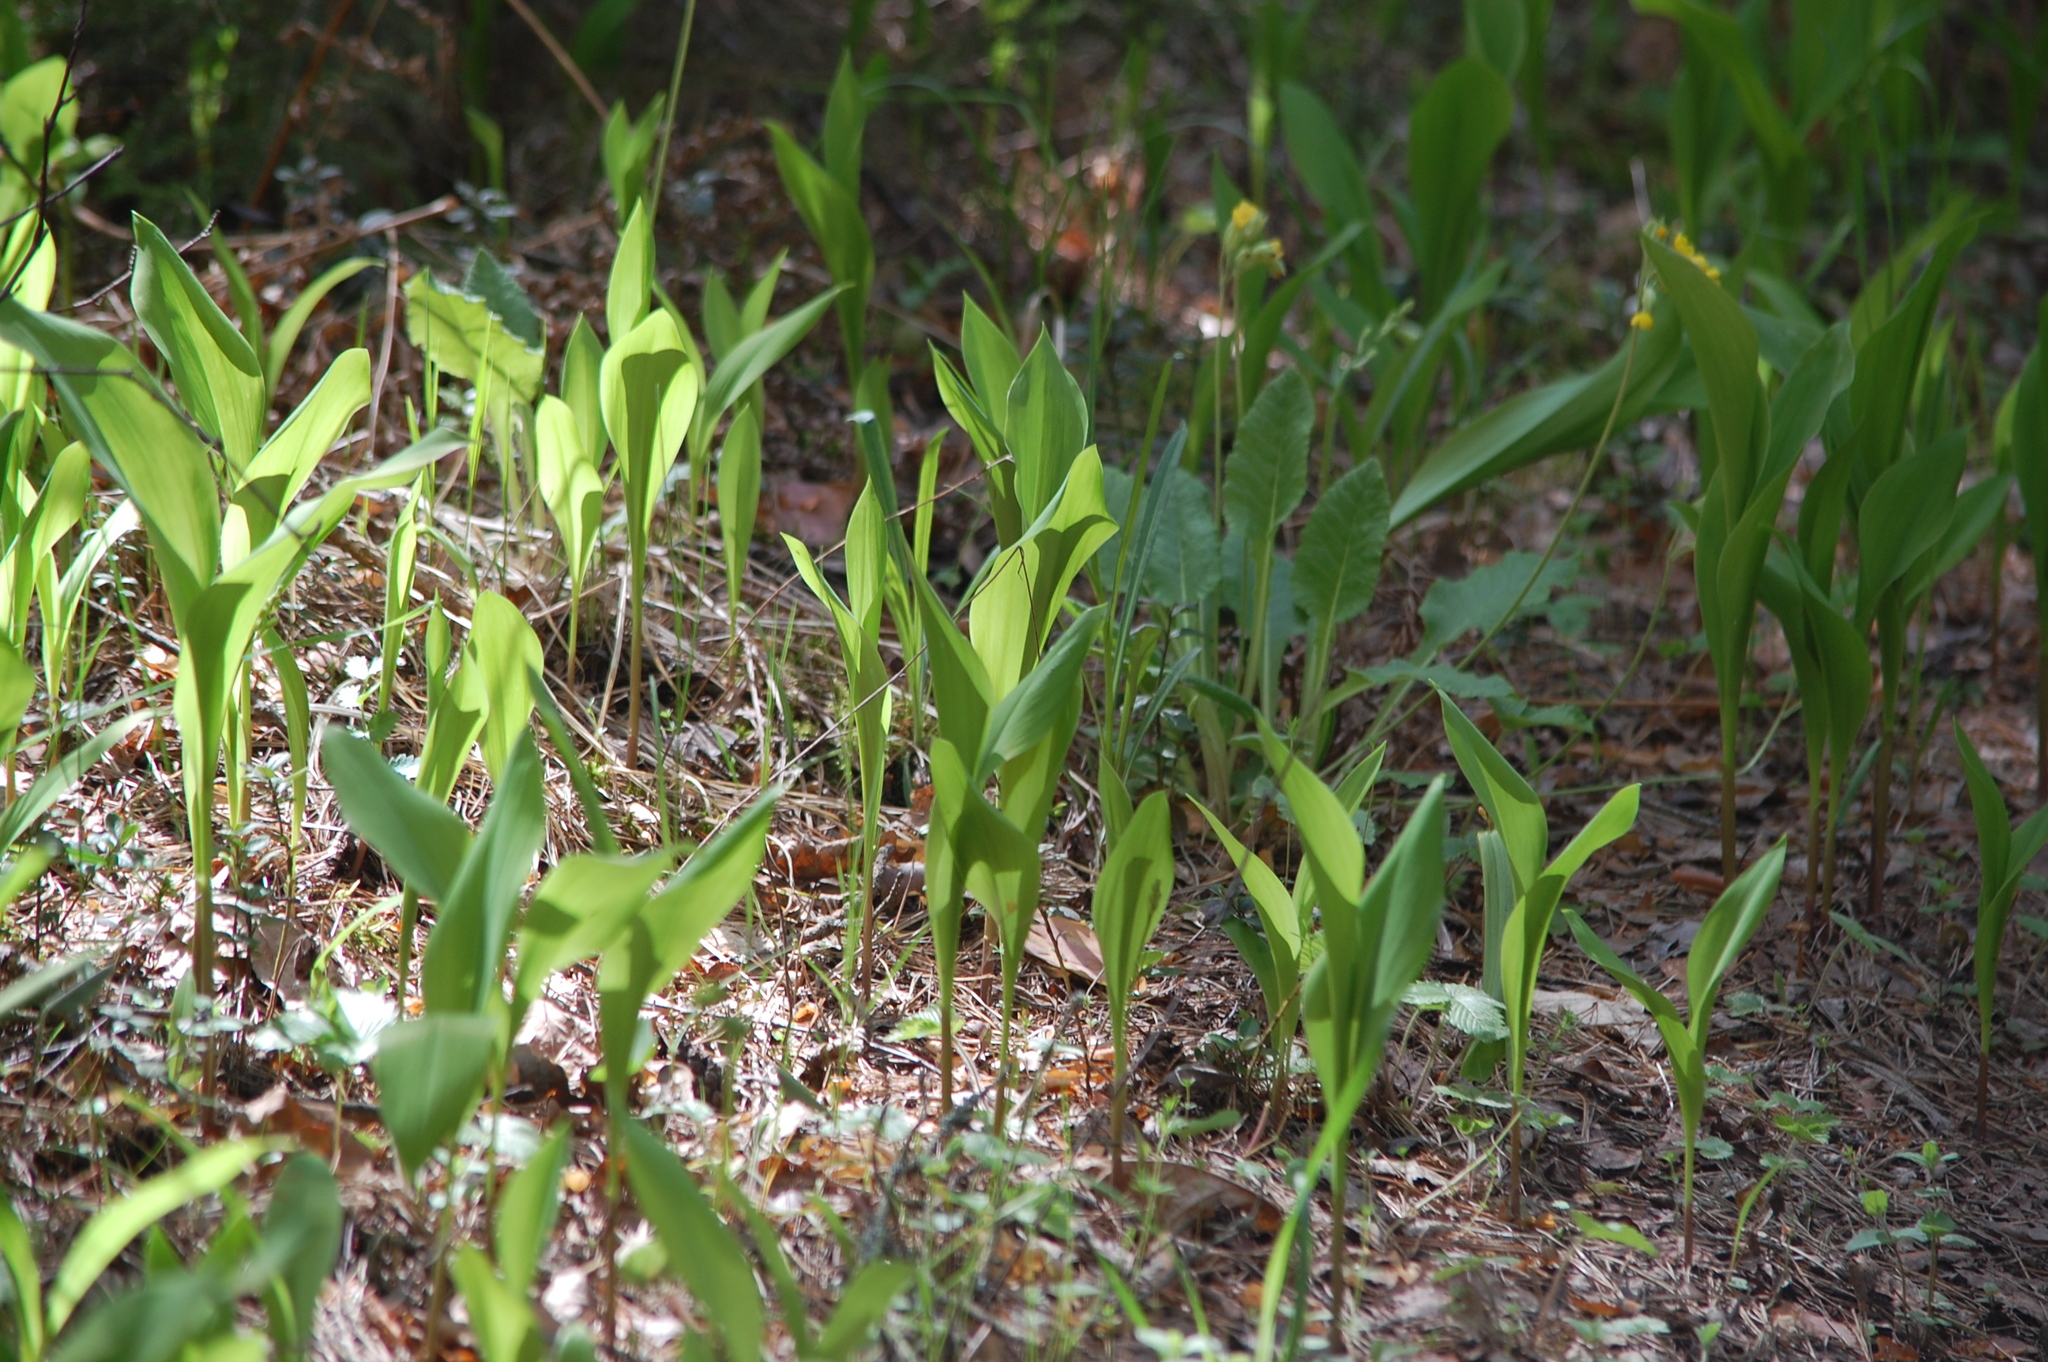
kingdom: Plantae
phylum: Tracheophyta
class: Liliopsida
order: Asparagales
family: Asparagaceae
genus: Convallaria
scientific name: Convallaria majalis
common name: Lily-of-the-valley
